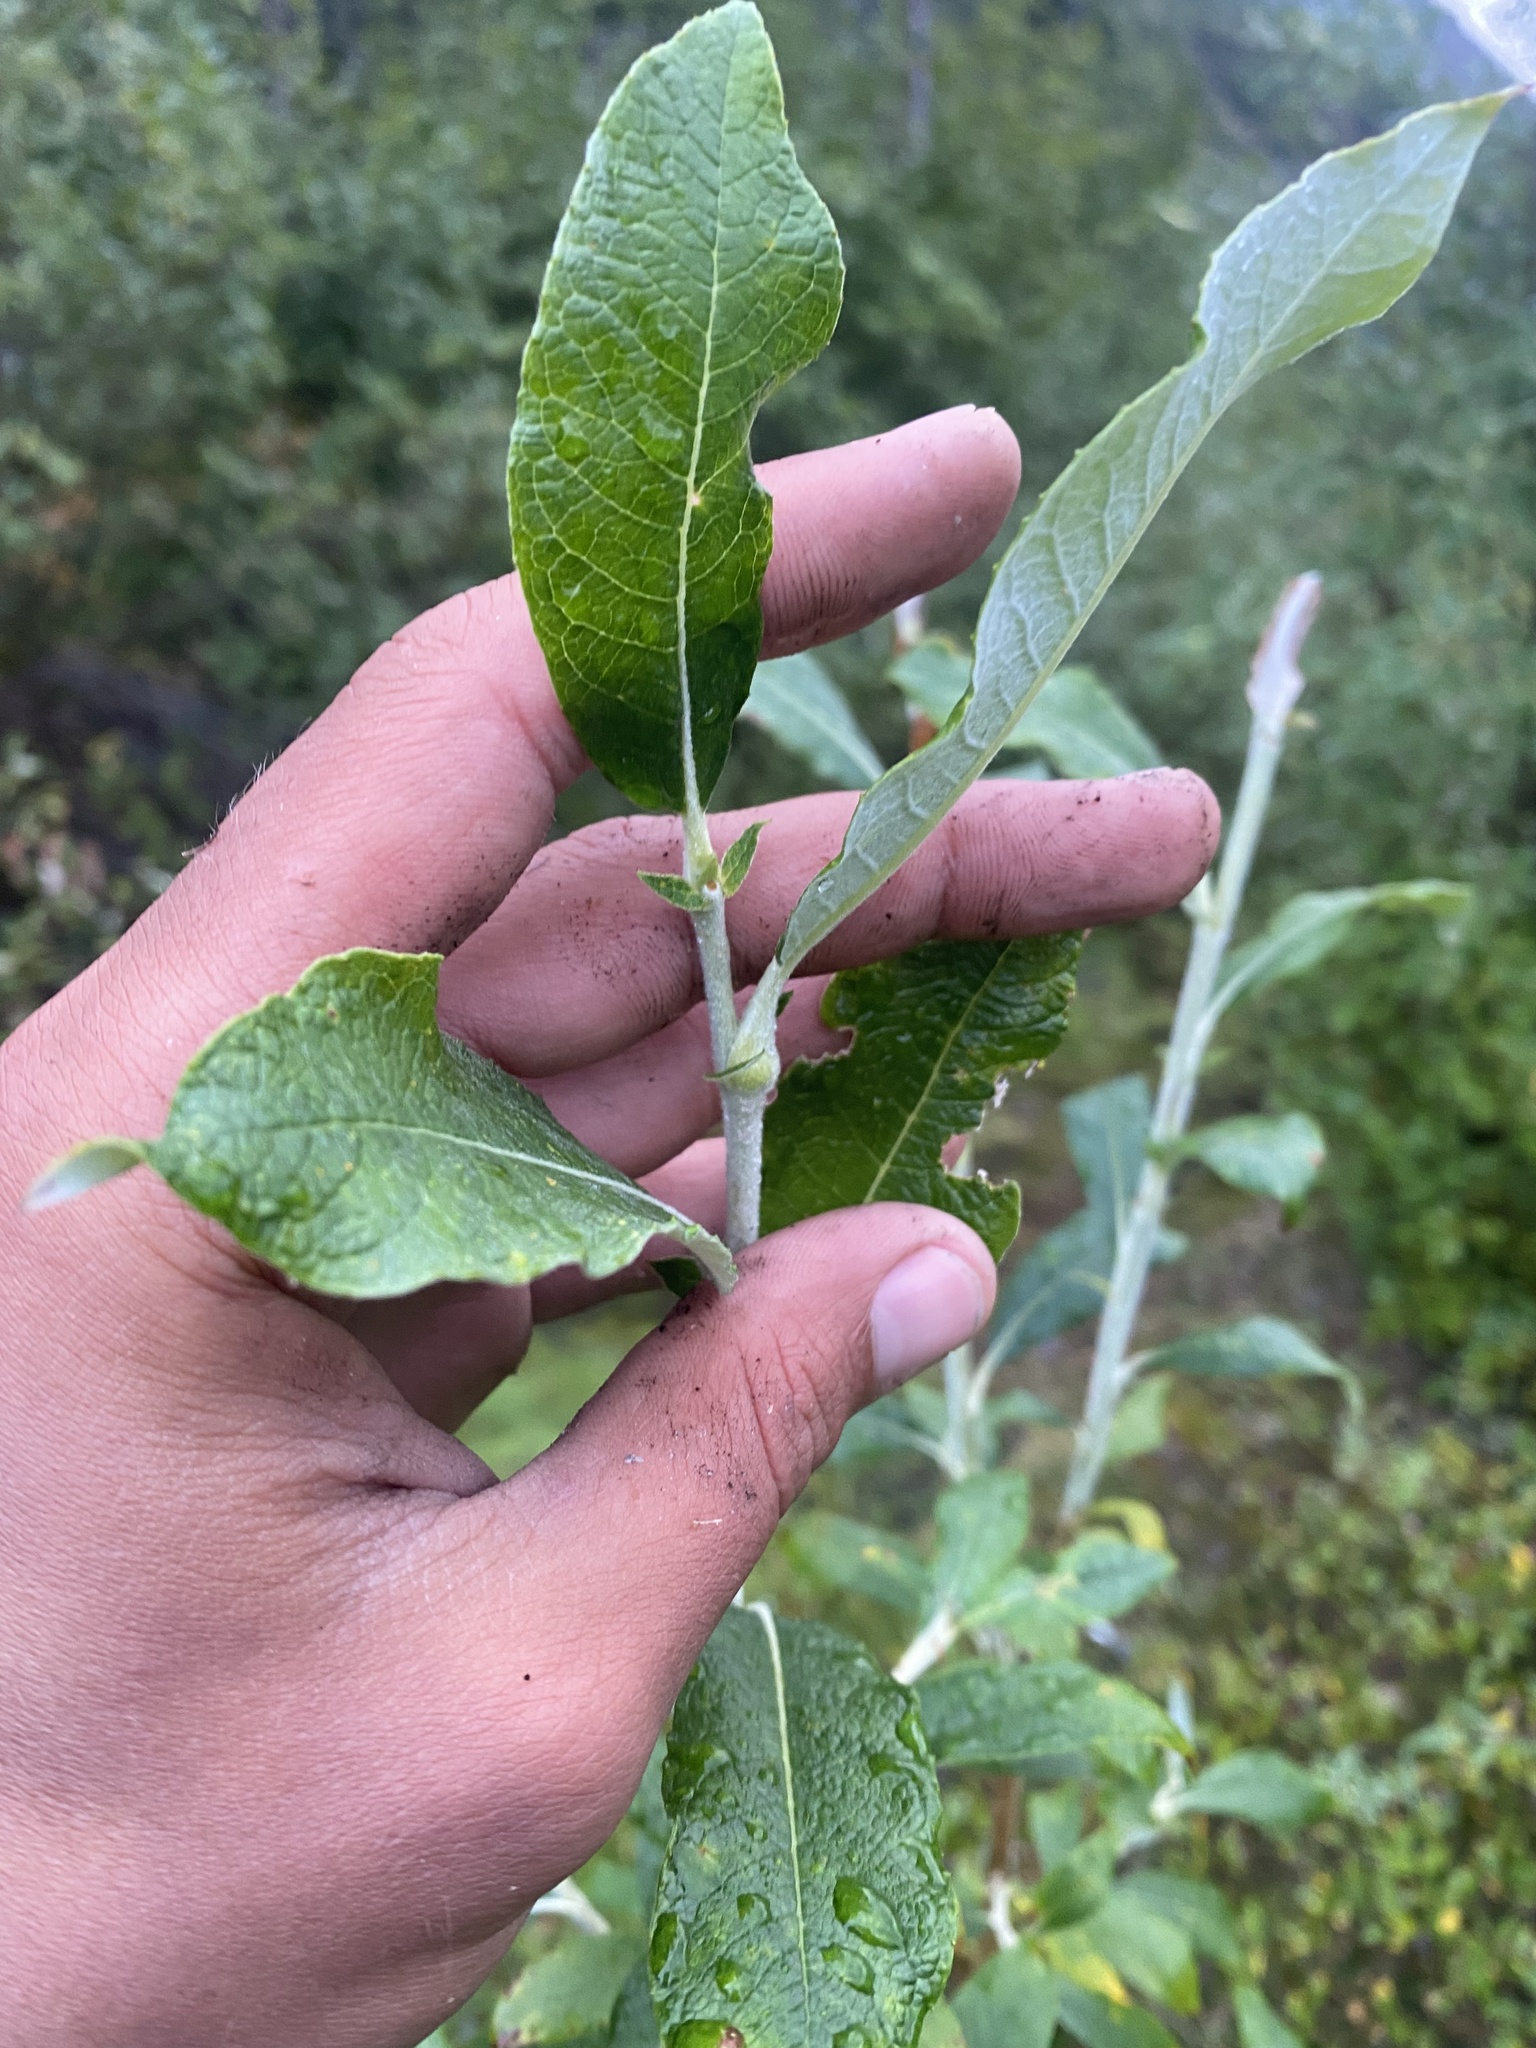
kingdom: Plantae
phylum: Tracheophyta
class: Magnoliopsida
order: Malpighiales
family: Salicaceae
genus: Salix
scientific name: Salix alaxensis
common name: Feltleaf willow
